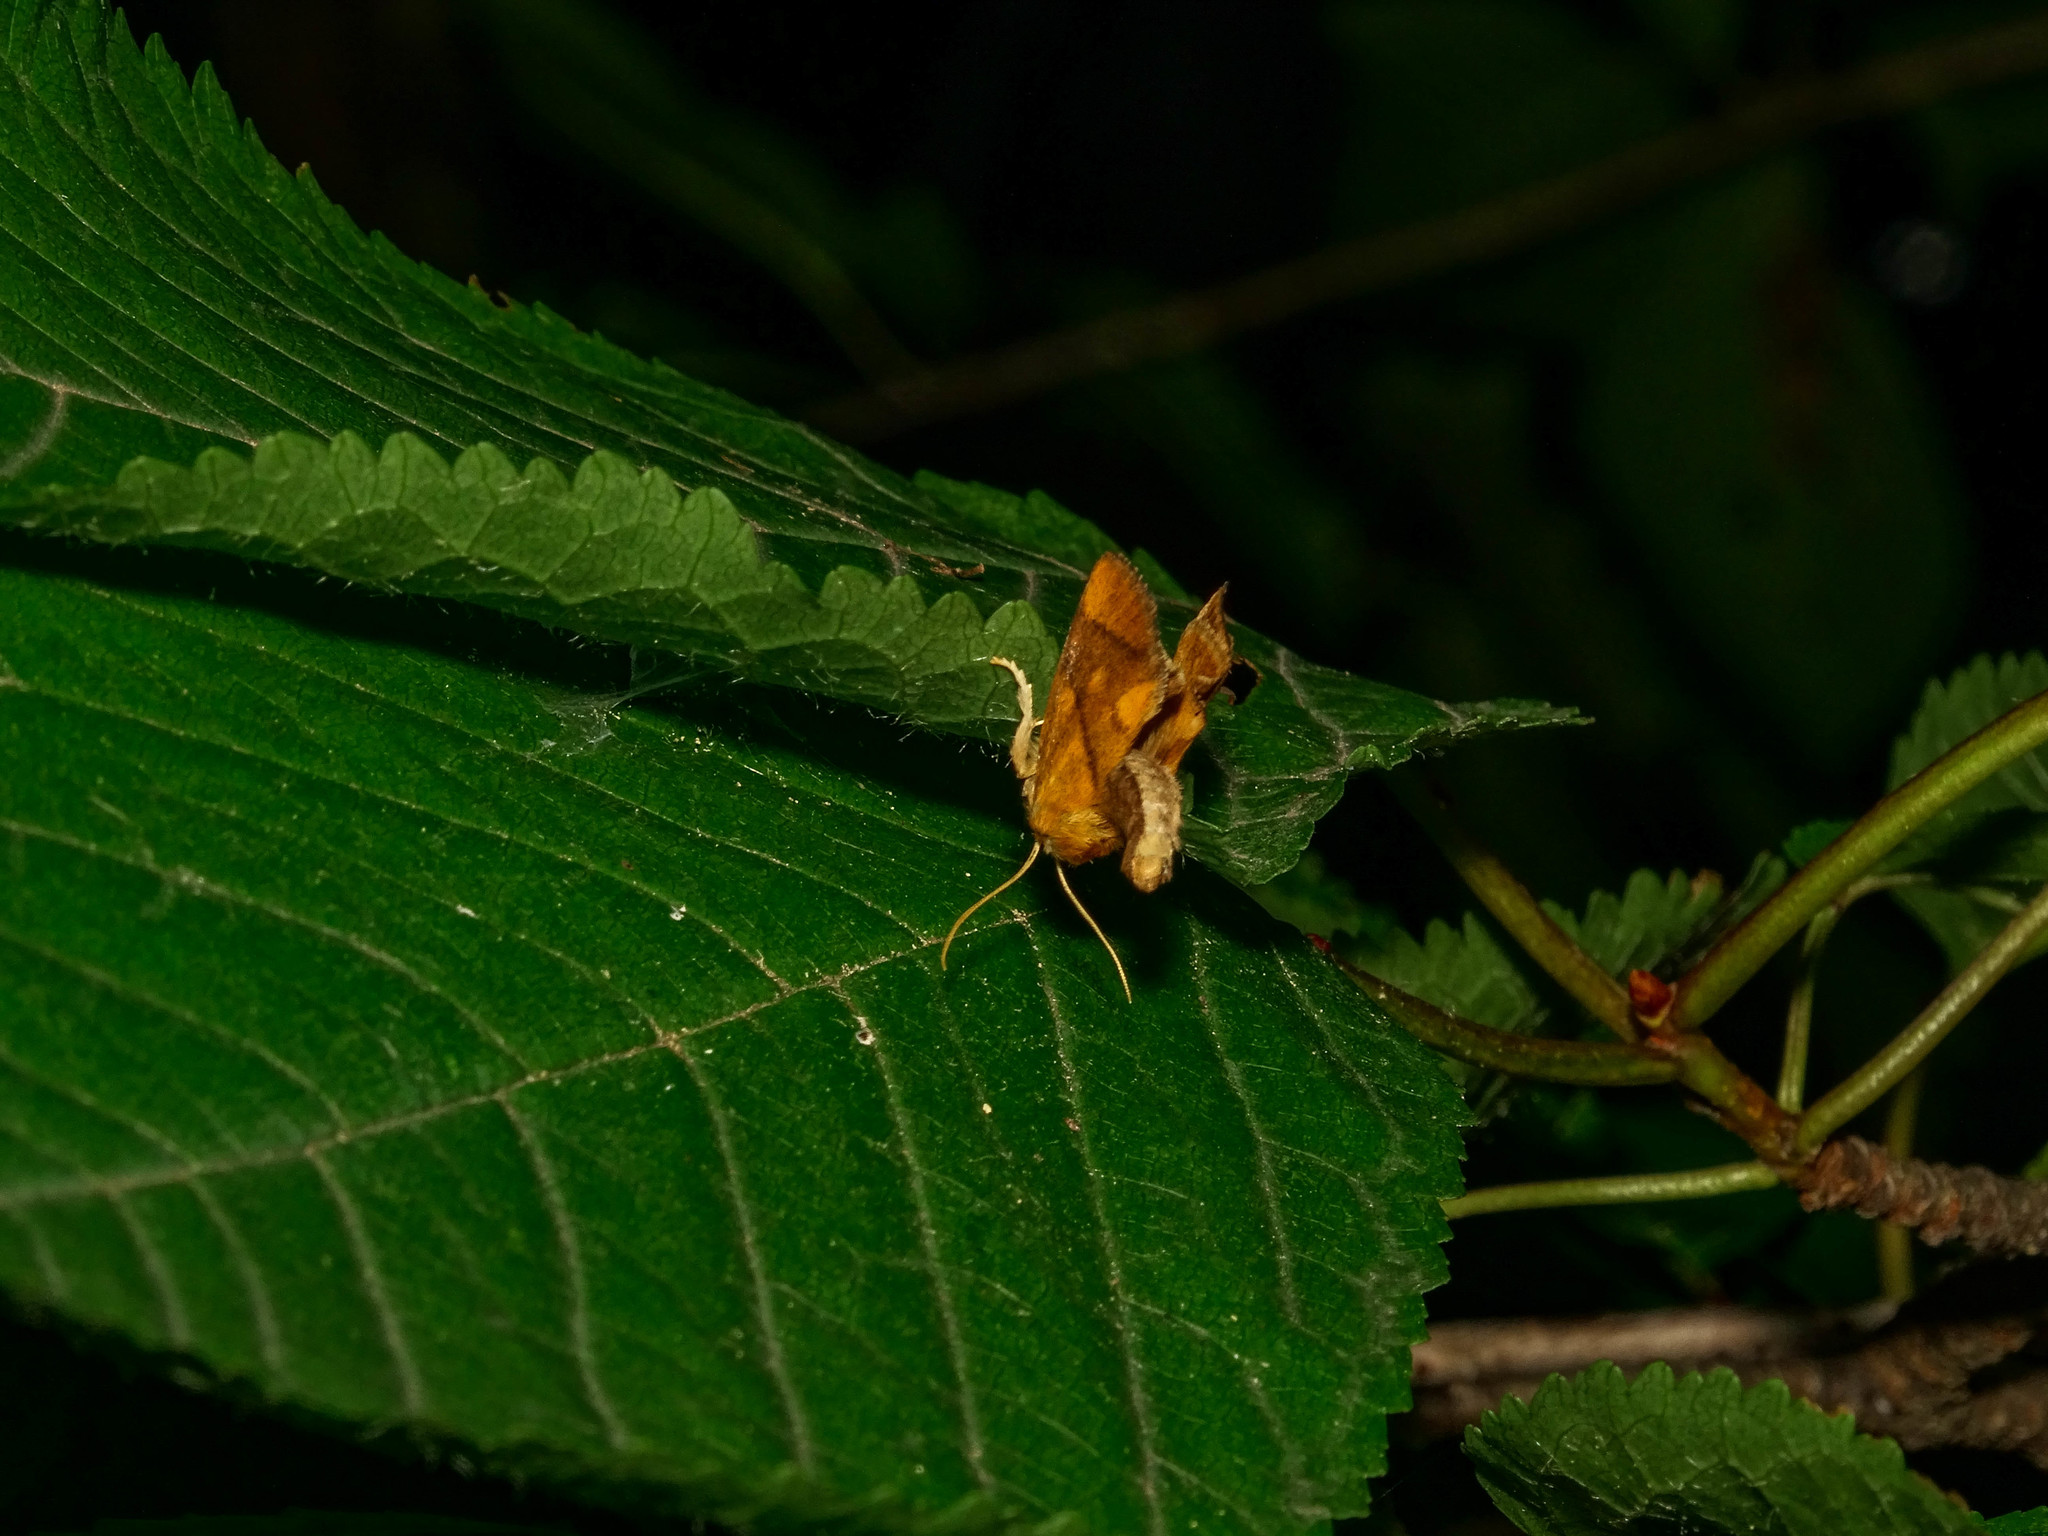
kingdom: Animalia
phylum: Arthropoda
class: Insecta
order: Lepidoptera
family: Limacodidae
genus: Apoda
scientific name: Apoda limacodes
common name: Festoon
